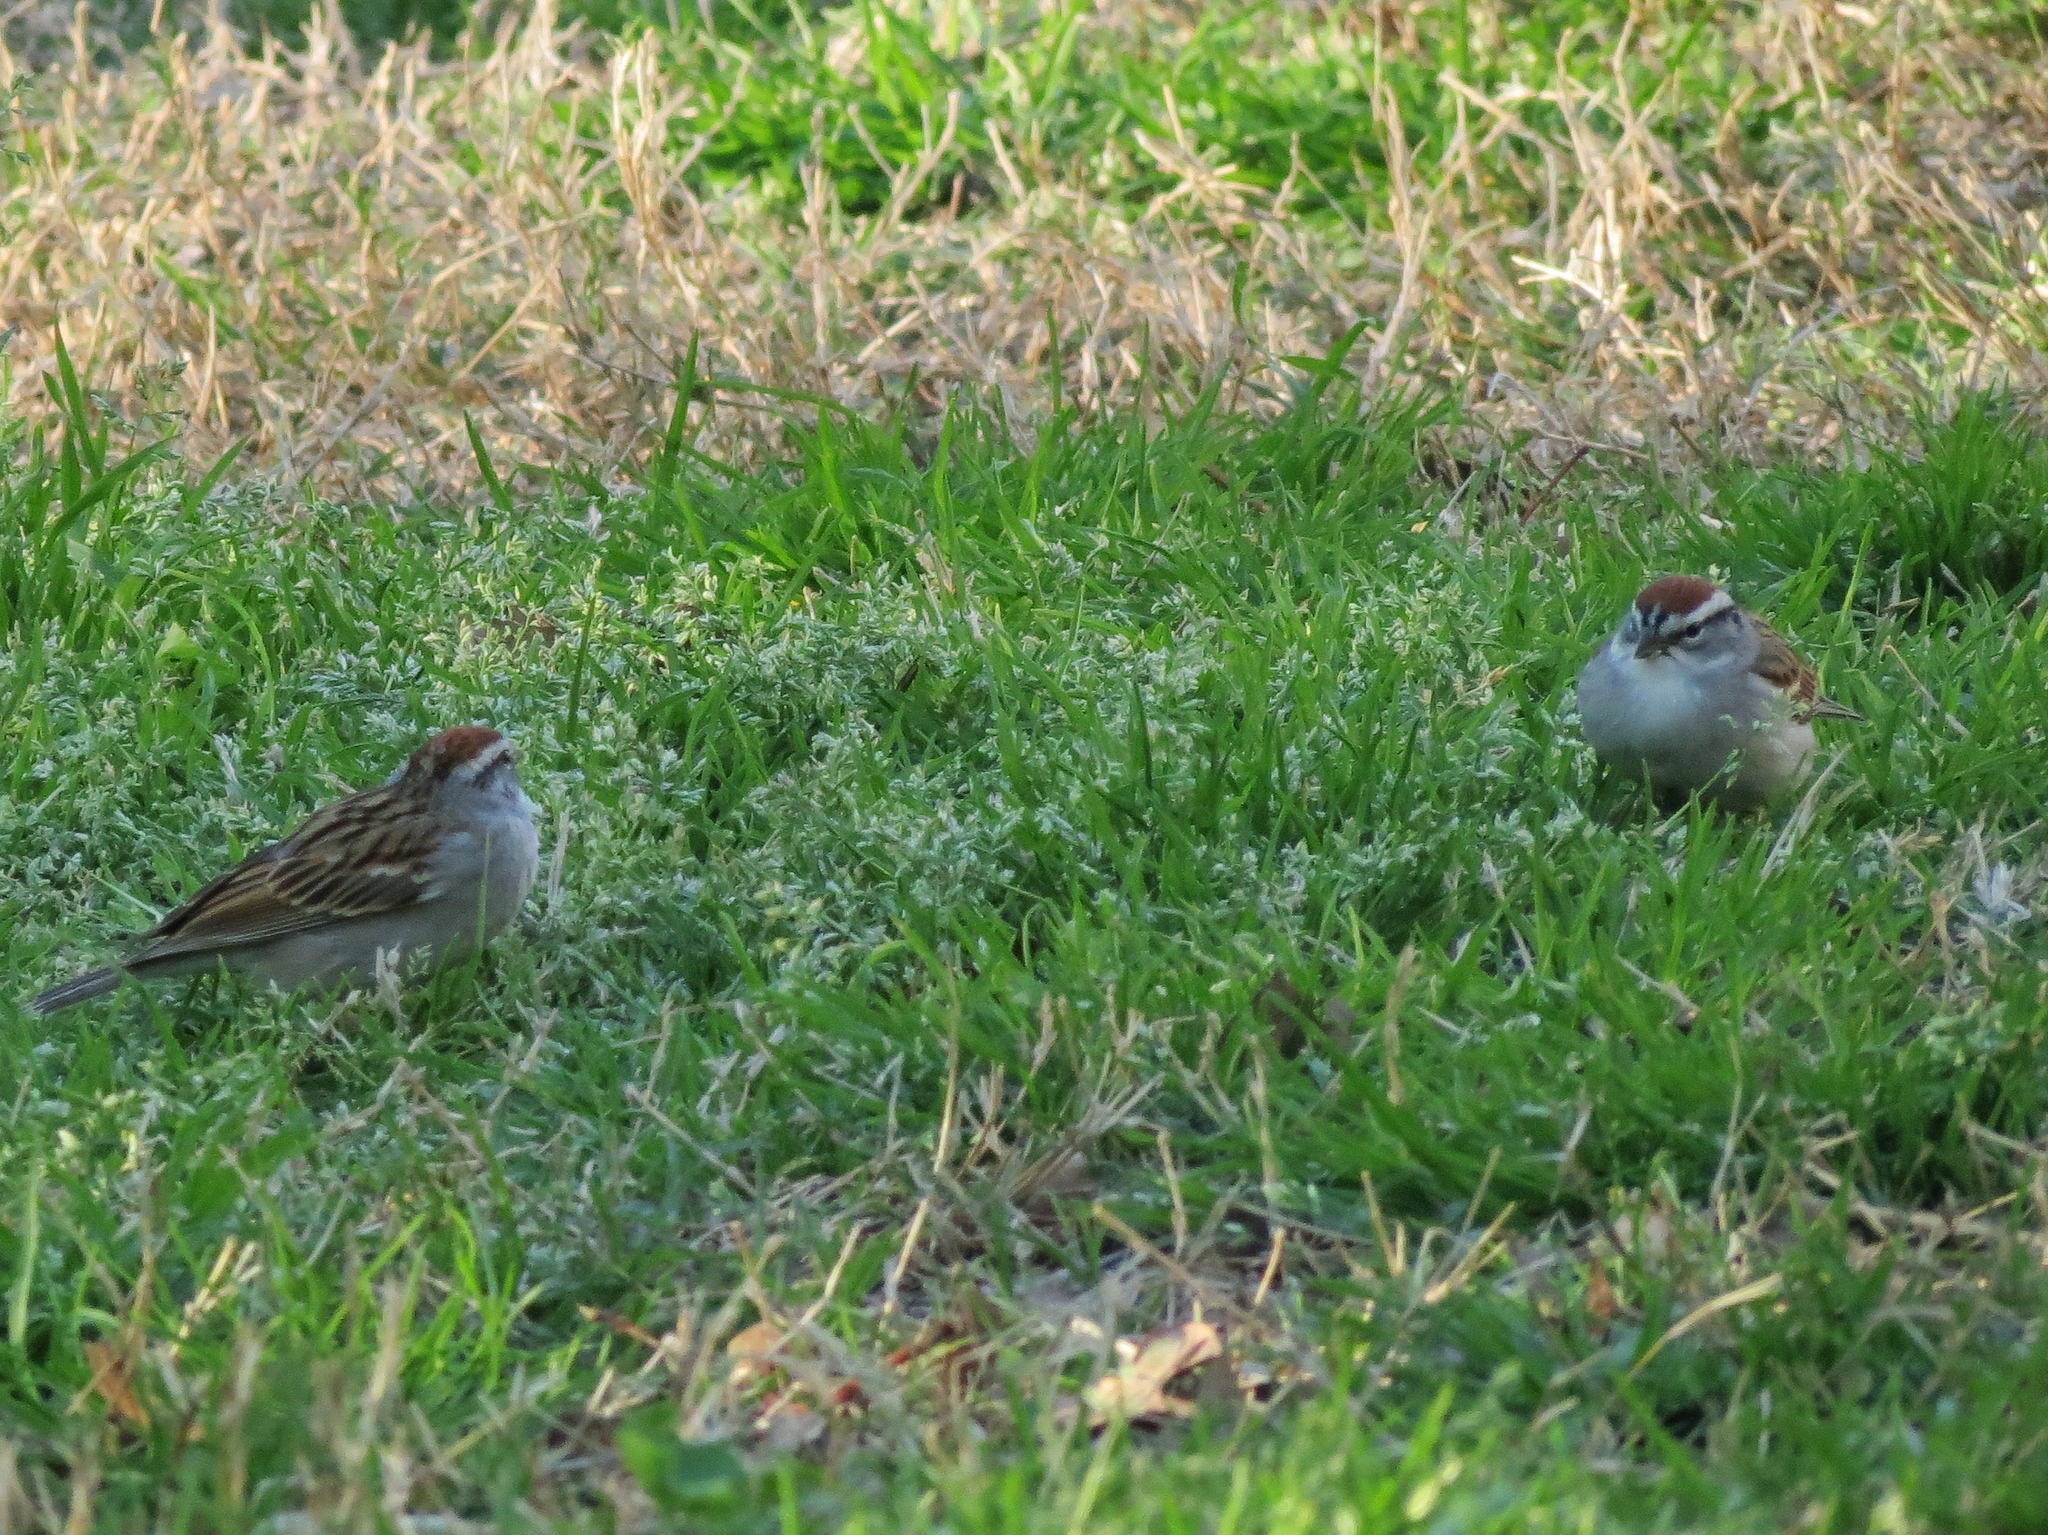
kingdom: Animalia
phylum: Chordata
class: Aves
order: Passeriformes
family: Passerellidae
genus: Spizella
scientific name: Spizella passerina
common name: Chipping sparrow
